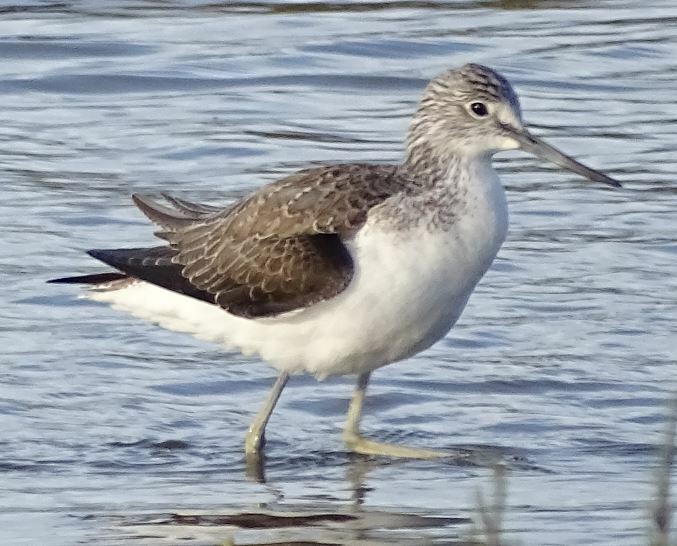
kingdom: Animalia
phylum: Chordata
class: Aves
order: Charadriiformes
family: Scolopacidae
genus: Tringa
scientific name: Tringa nebularia
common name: Common greenshank
